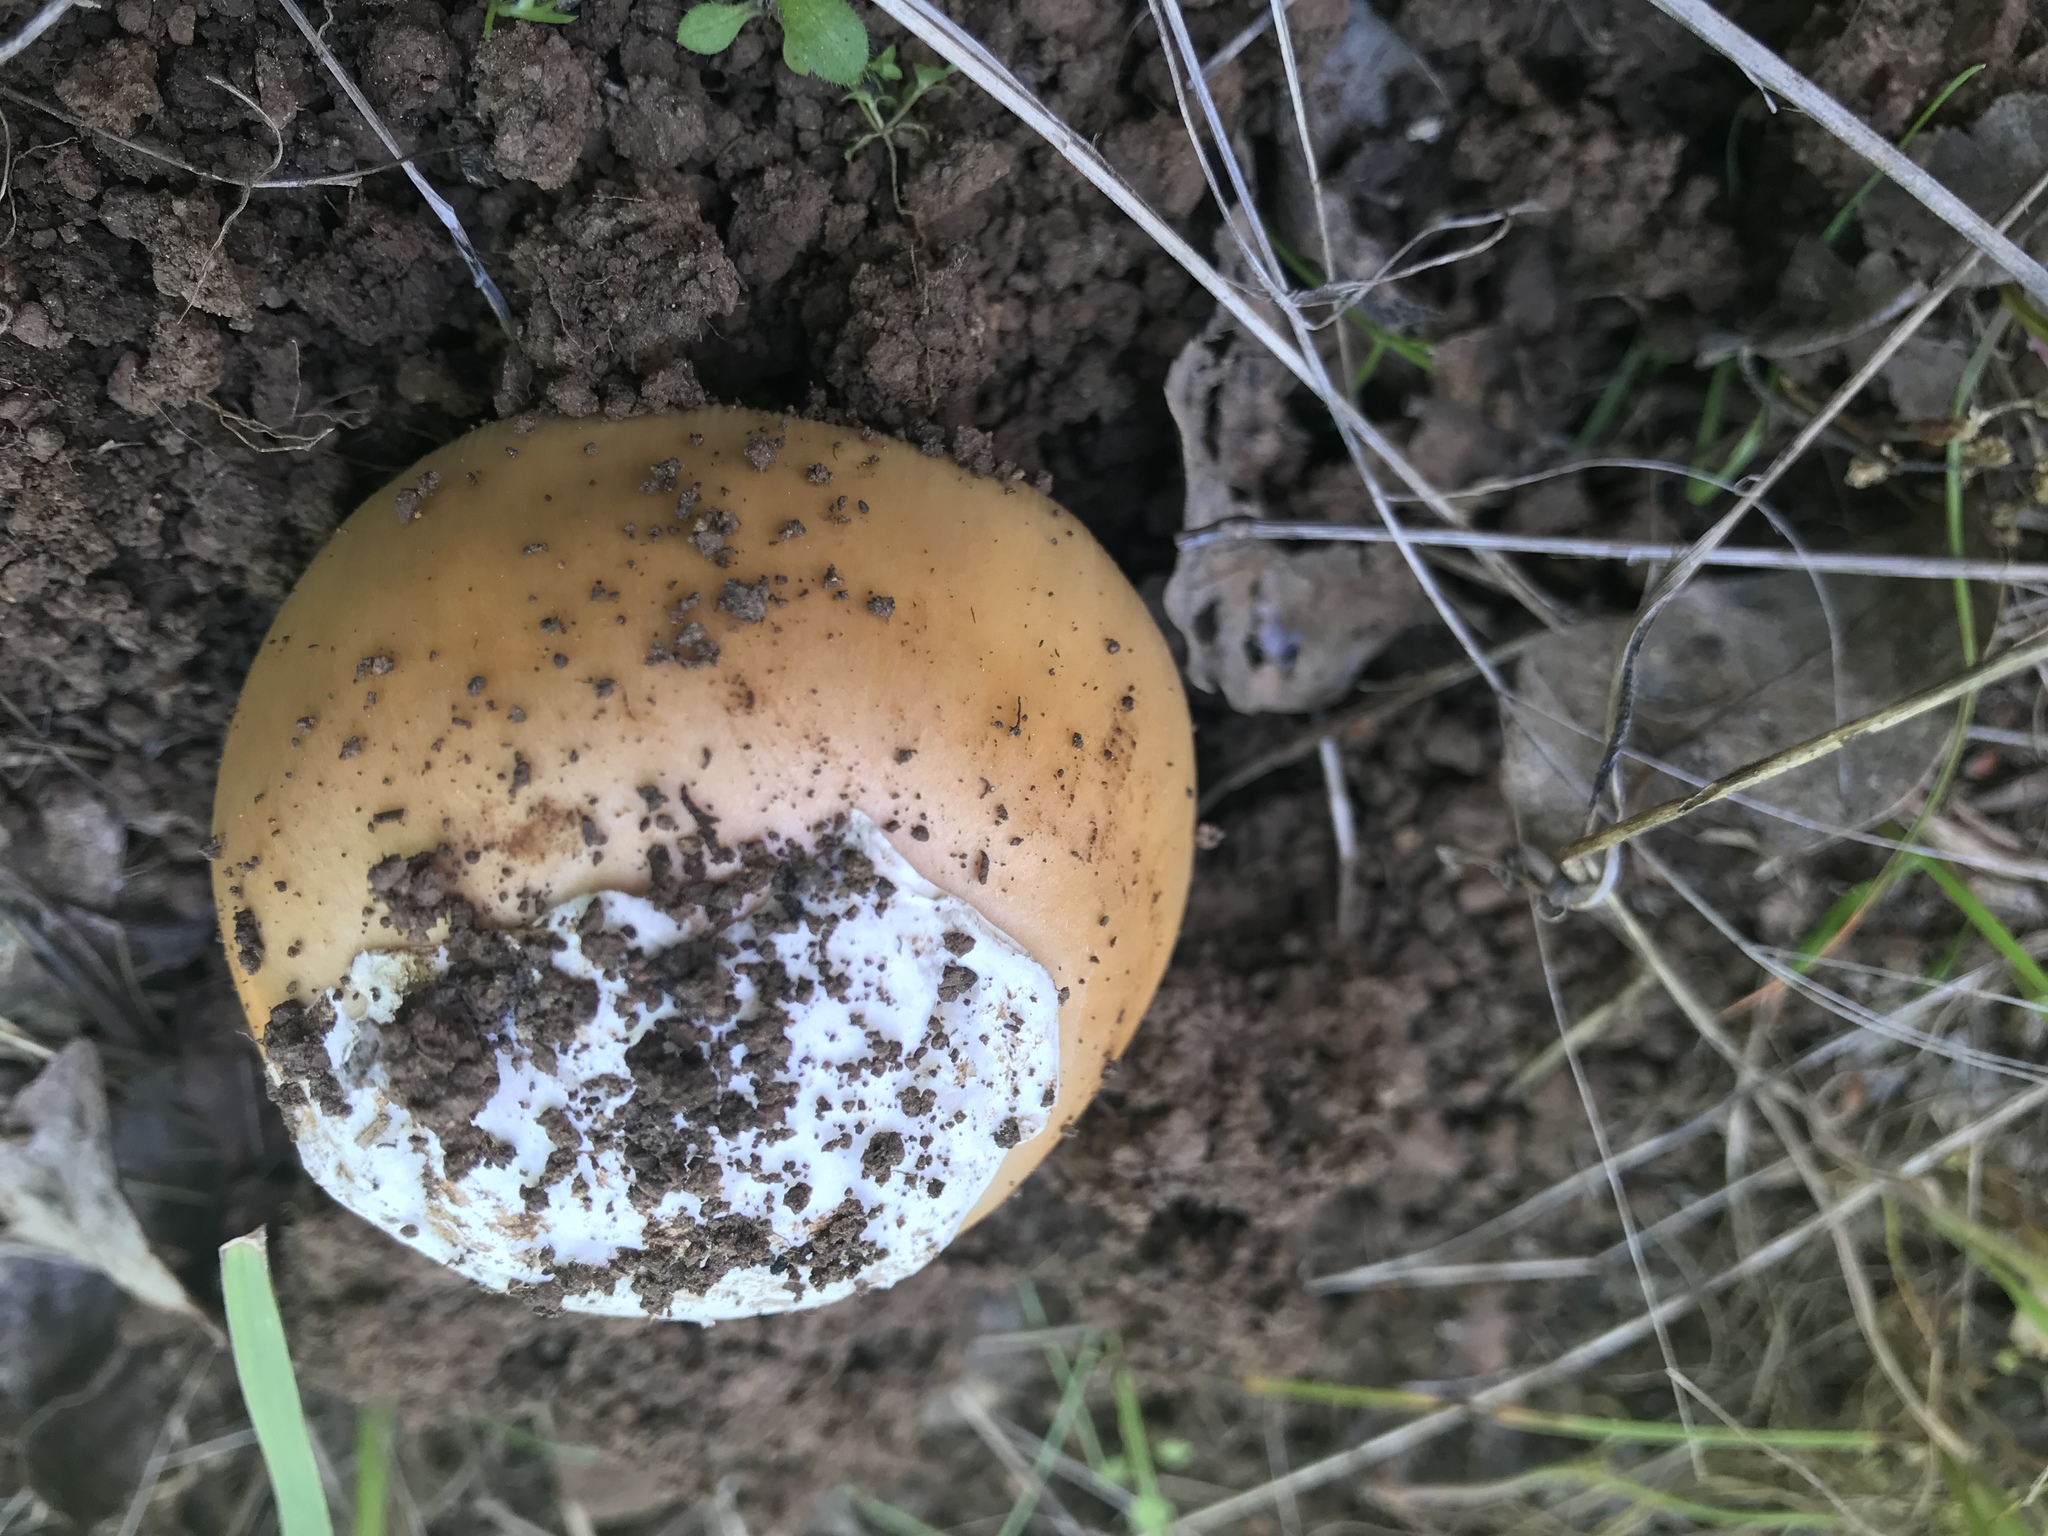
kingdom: Fungi
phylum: Basidiomycota
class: Agaricomycetes
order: Agaricales
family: Amanitaceae
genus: Amanita
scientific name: Amanita velosa
